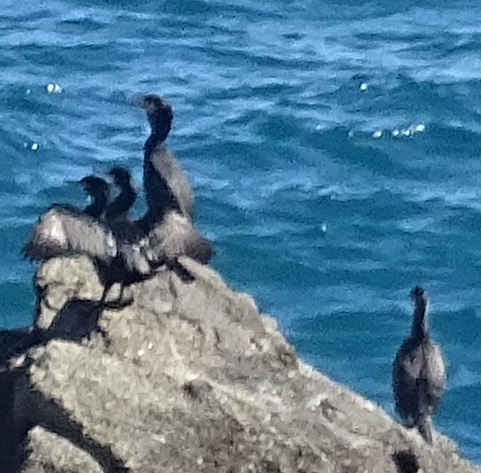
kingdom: Animalia
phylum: Chordata
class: Aves
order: Suliformes
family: Phalacrocoracidae
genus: Phalacrocorax
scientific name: Phalacrocorax carbo
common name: Great cormorant
